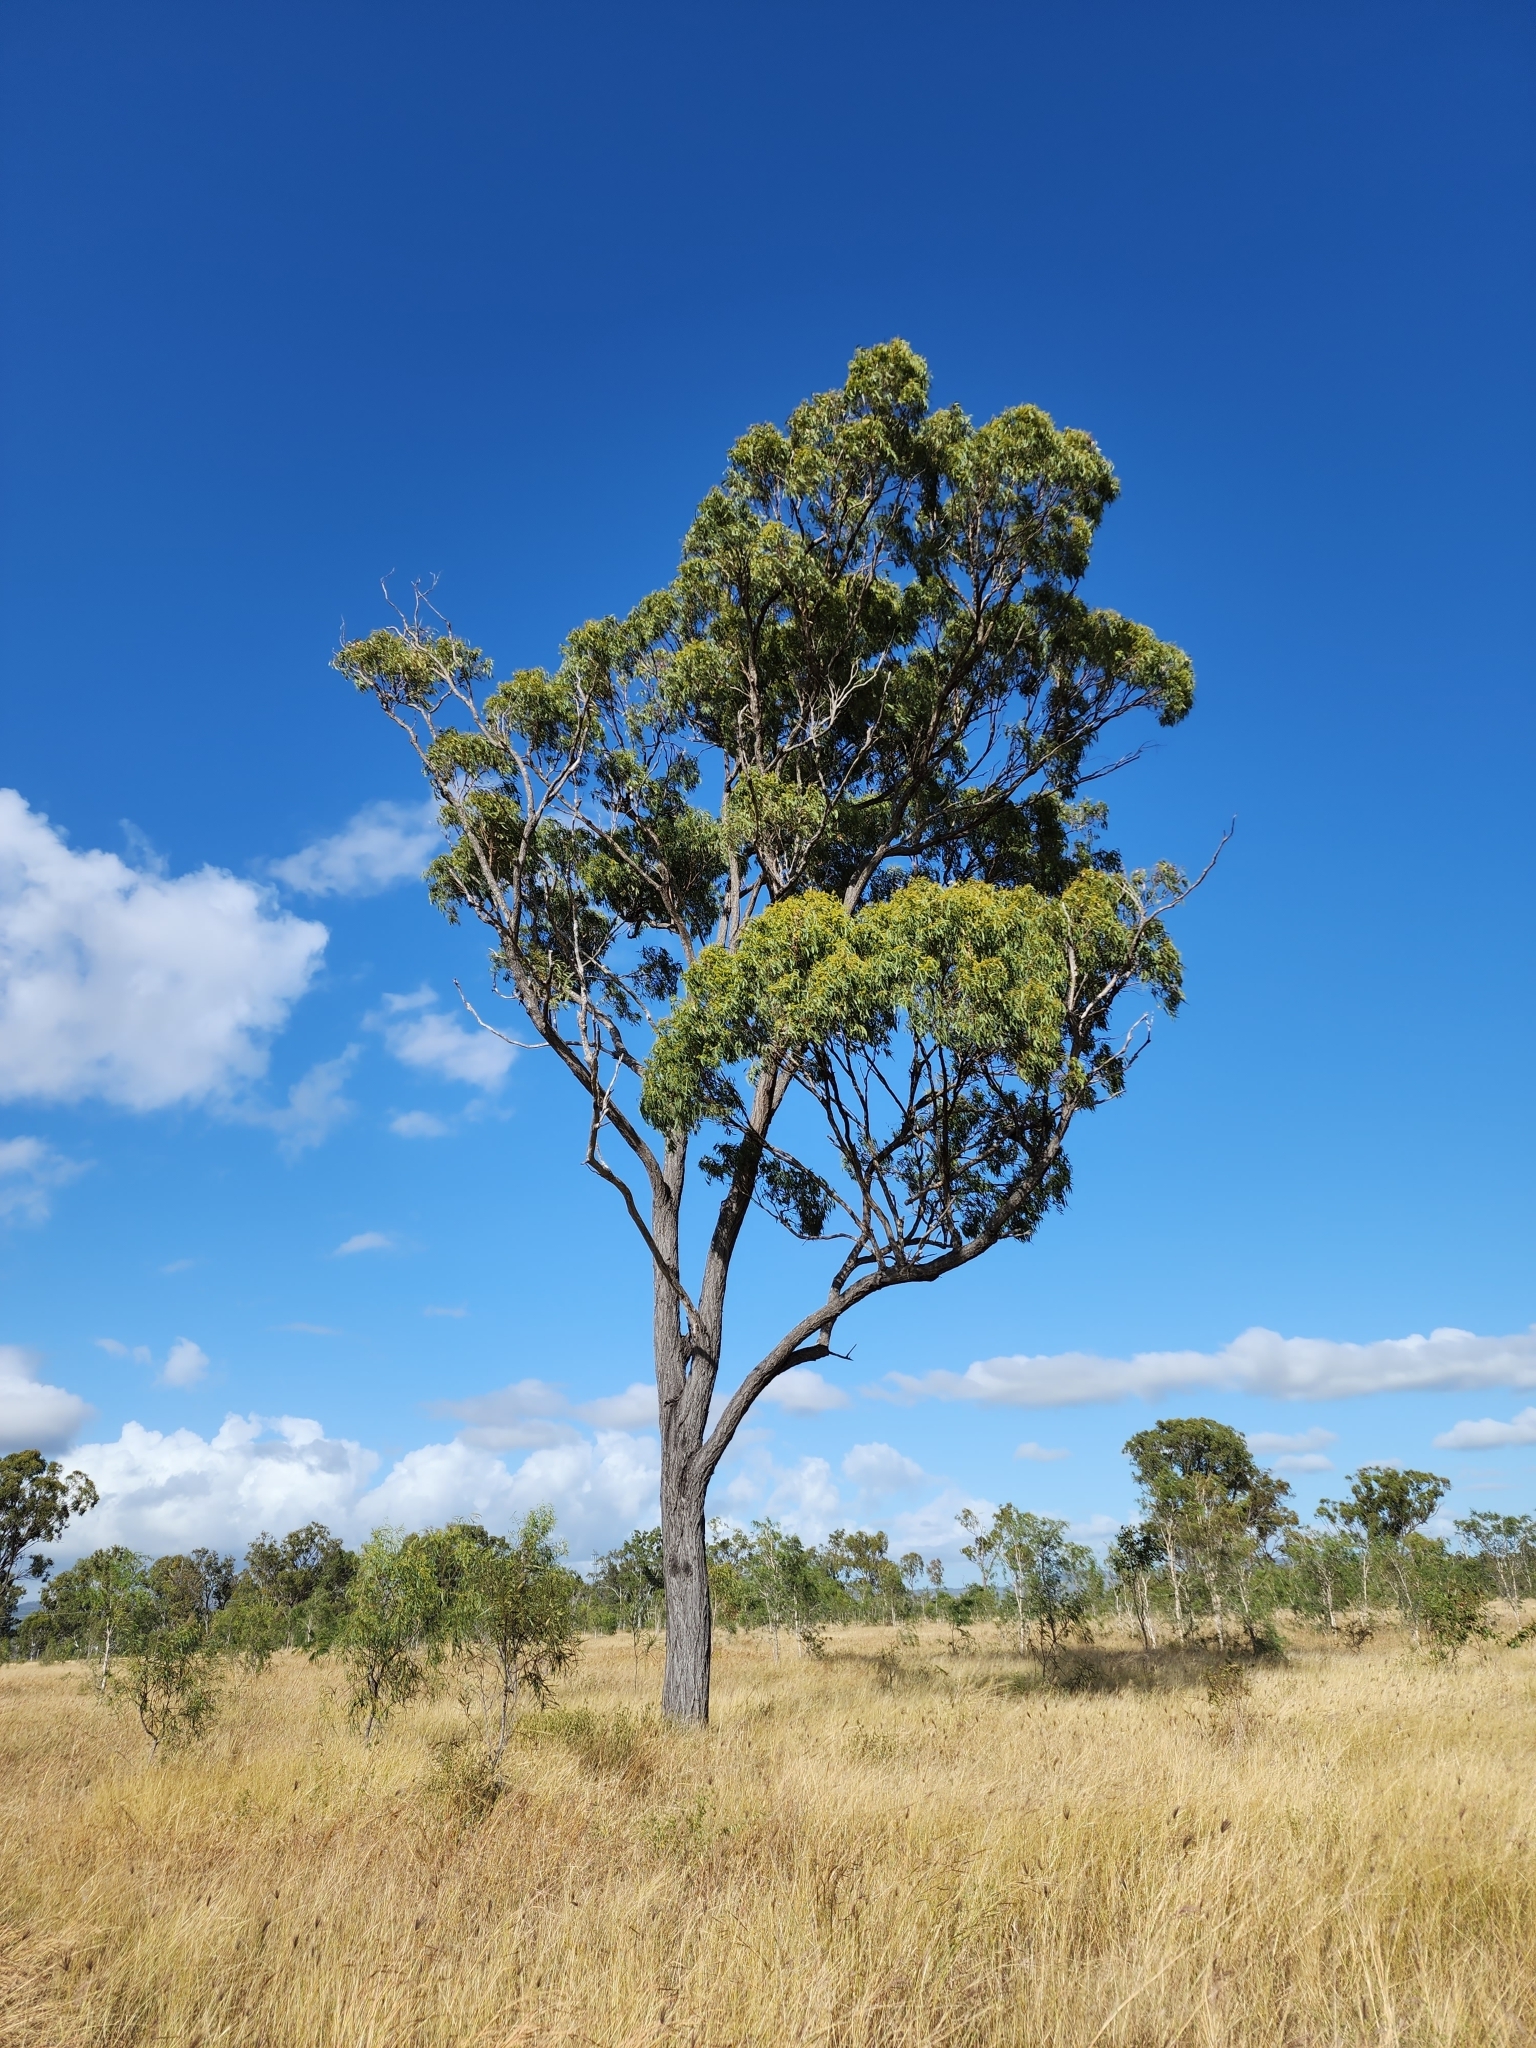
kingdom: Plantae
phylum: Tracheophyta
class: Magnoliopsida
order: Myrtales
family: Myrtaceae
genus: Eucalyptus
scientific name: Eucalyptus crebra
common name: Narrowleaf red ironbark
